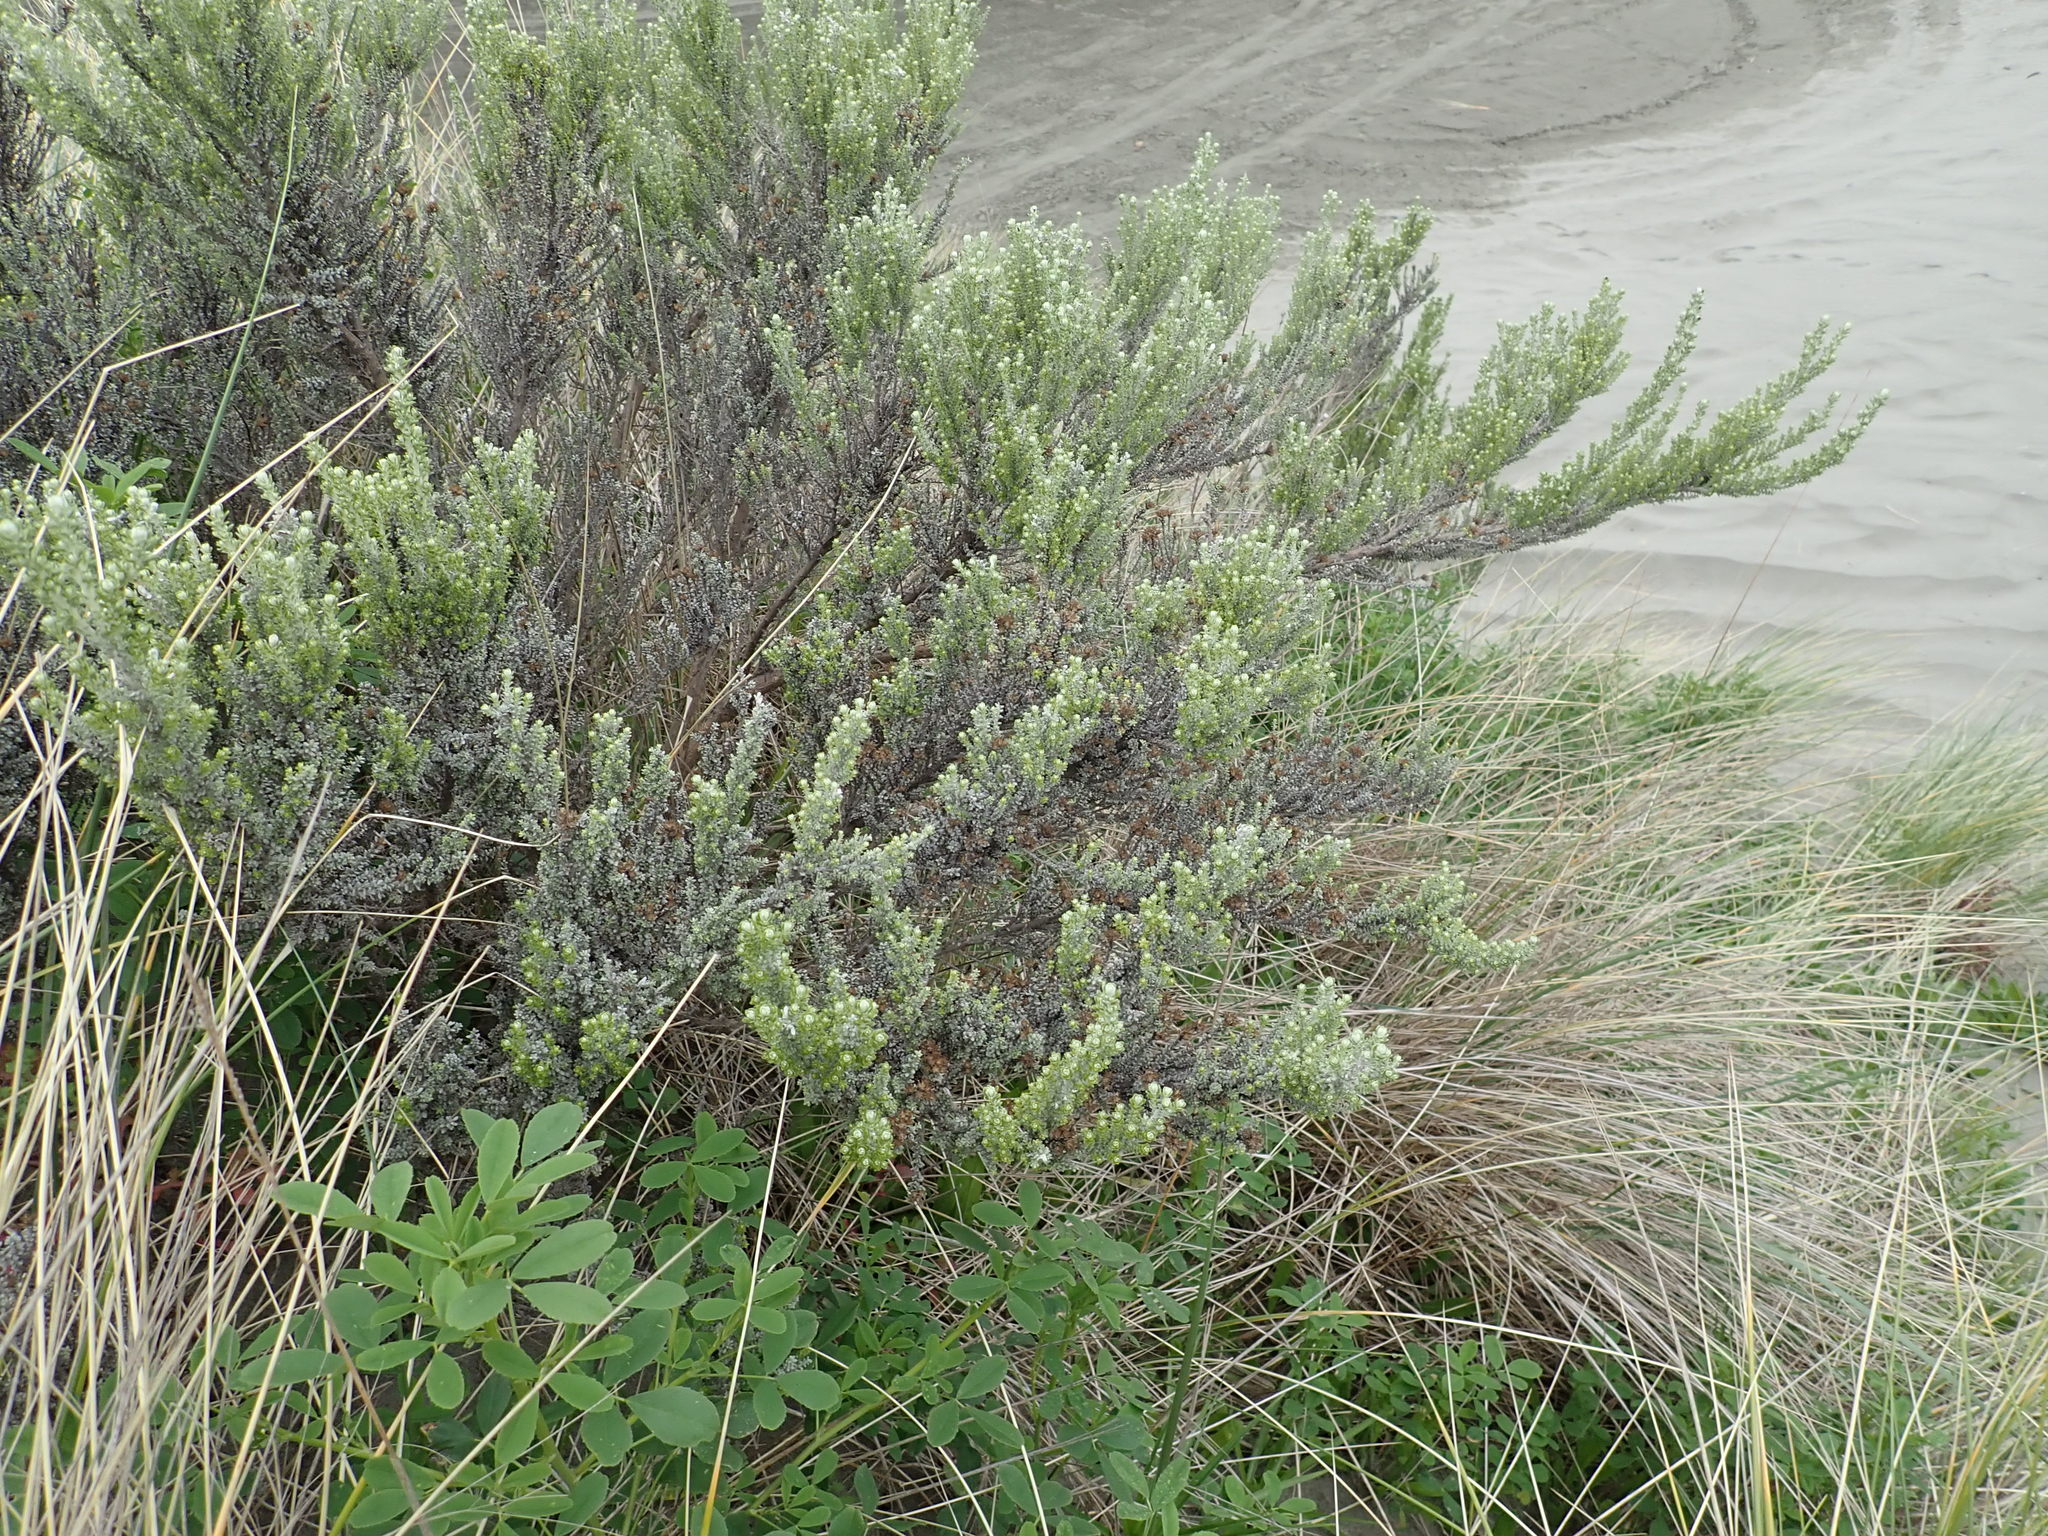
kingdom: Plantae
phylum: Tracheophyta
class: Magnoliopsida
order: Asterales
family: Asteraceae
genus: Ozothamnus
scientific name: Ozothamnus leptophyllus
